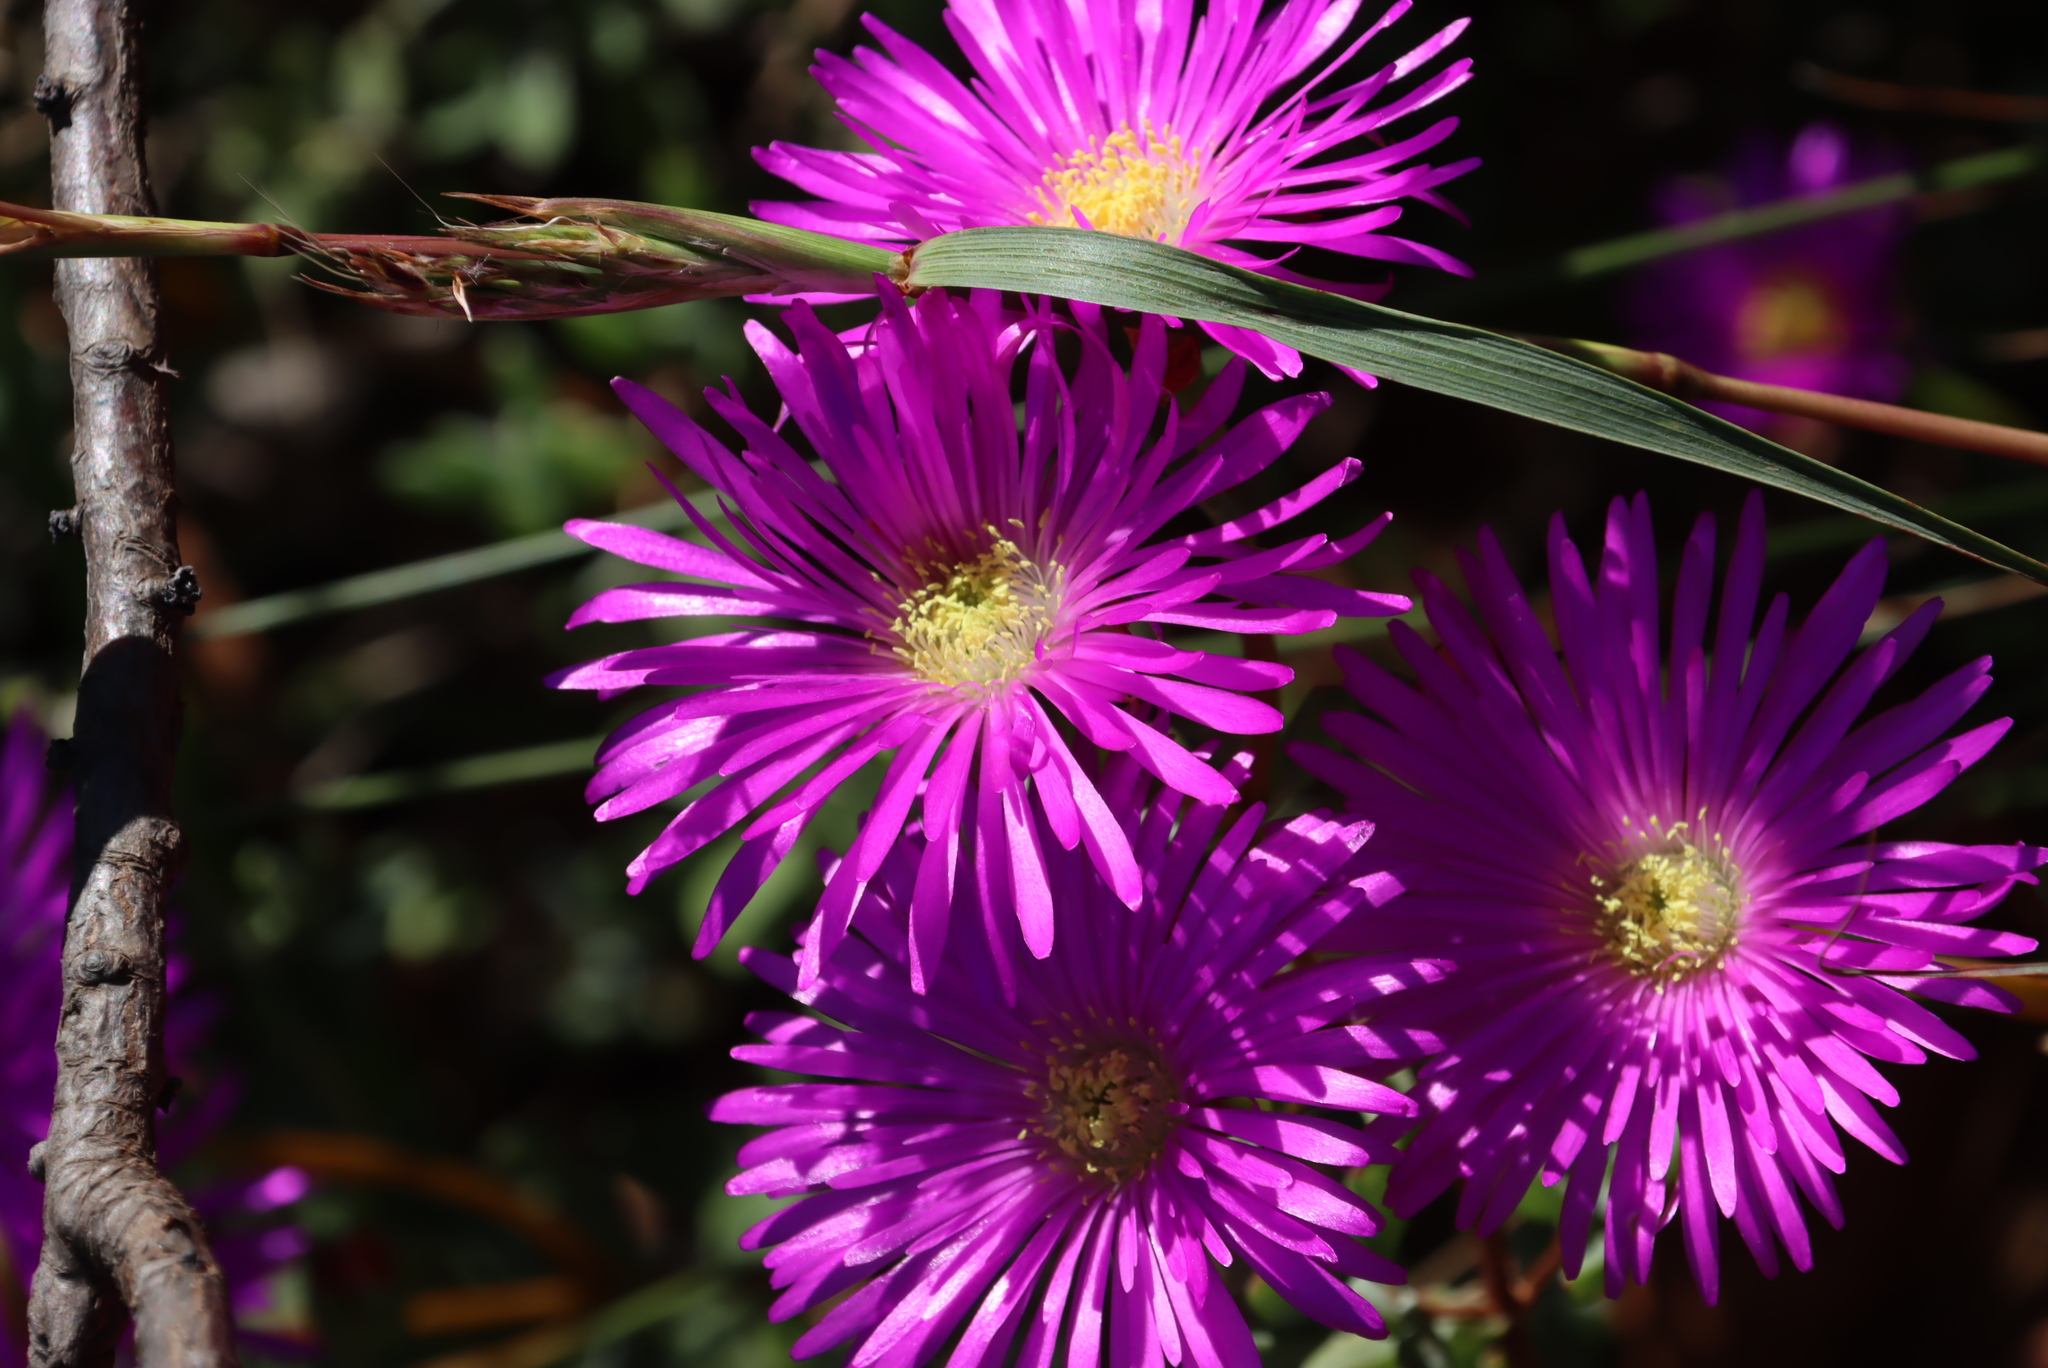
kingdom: Plantae
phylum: Tracheophyta
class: Magnoliopsida
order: Caryophyllales
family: Aizoaceae
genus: Oscularia
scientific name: Oscularia falciformis
